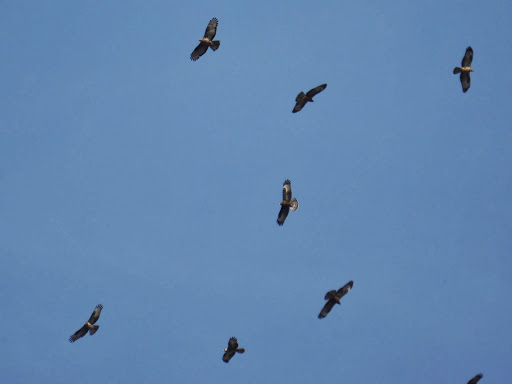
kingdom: Animalia
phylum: Chordata
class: Aves
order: Accipitriformes
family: Accipitridae
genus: Pernis
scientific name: Pernis apivorus
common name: European honey buzzard
